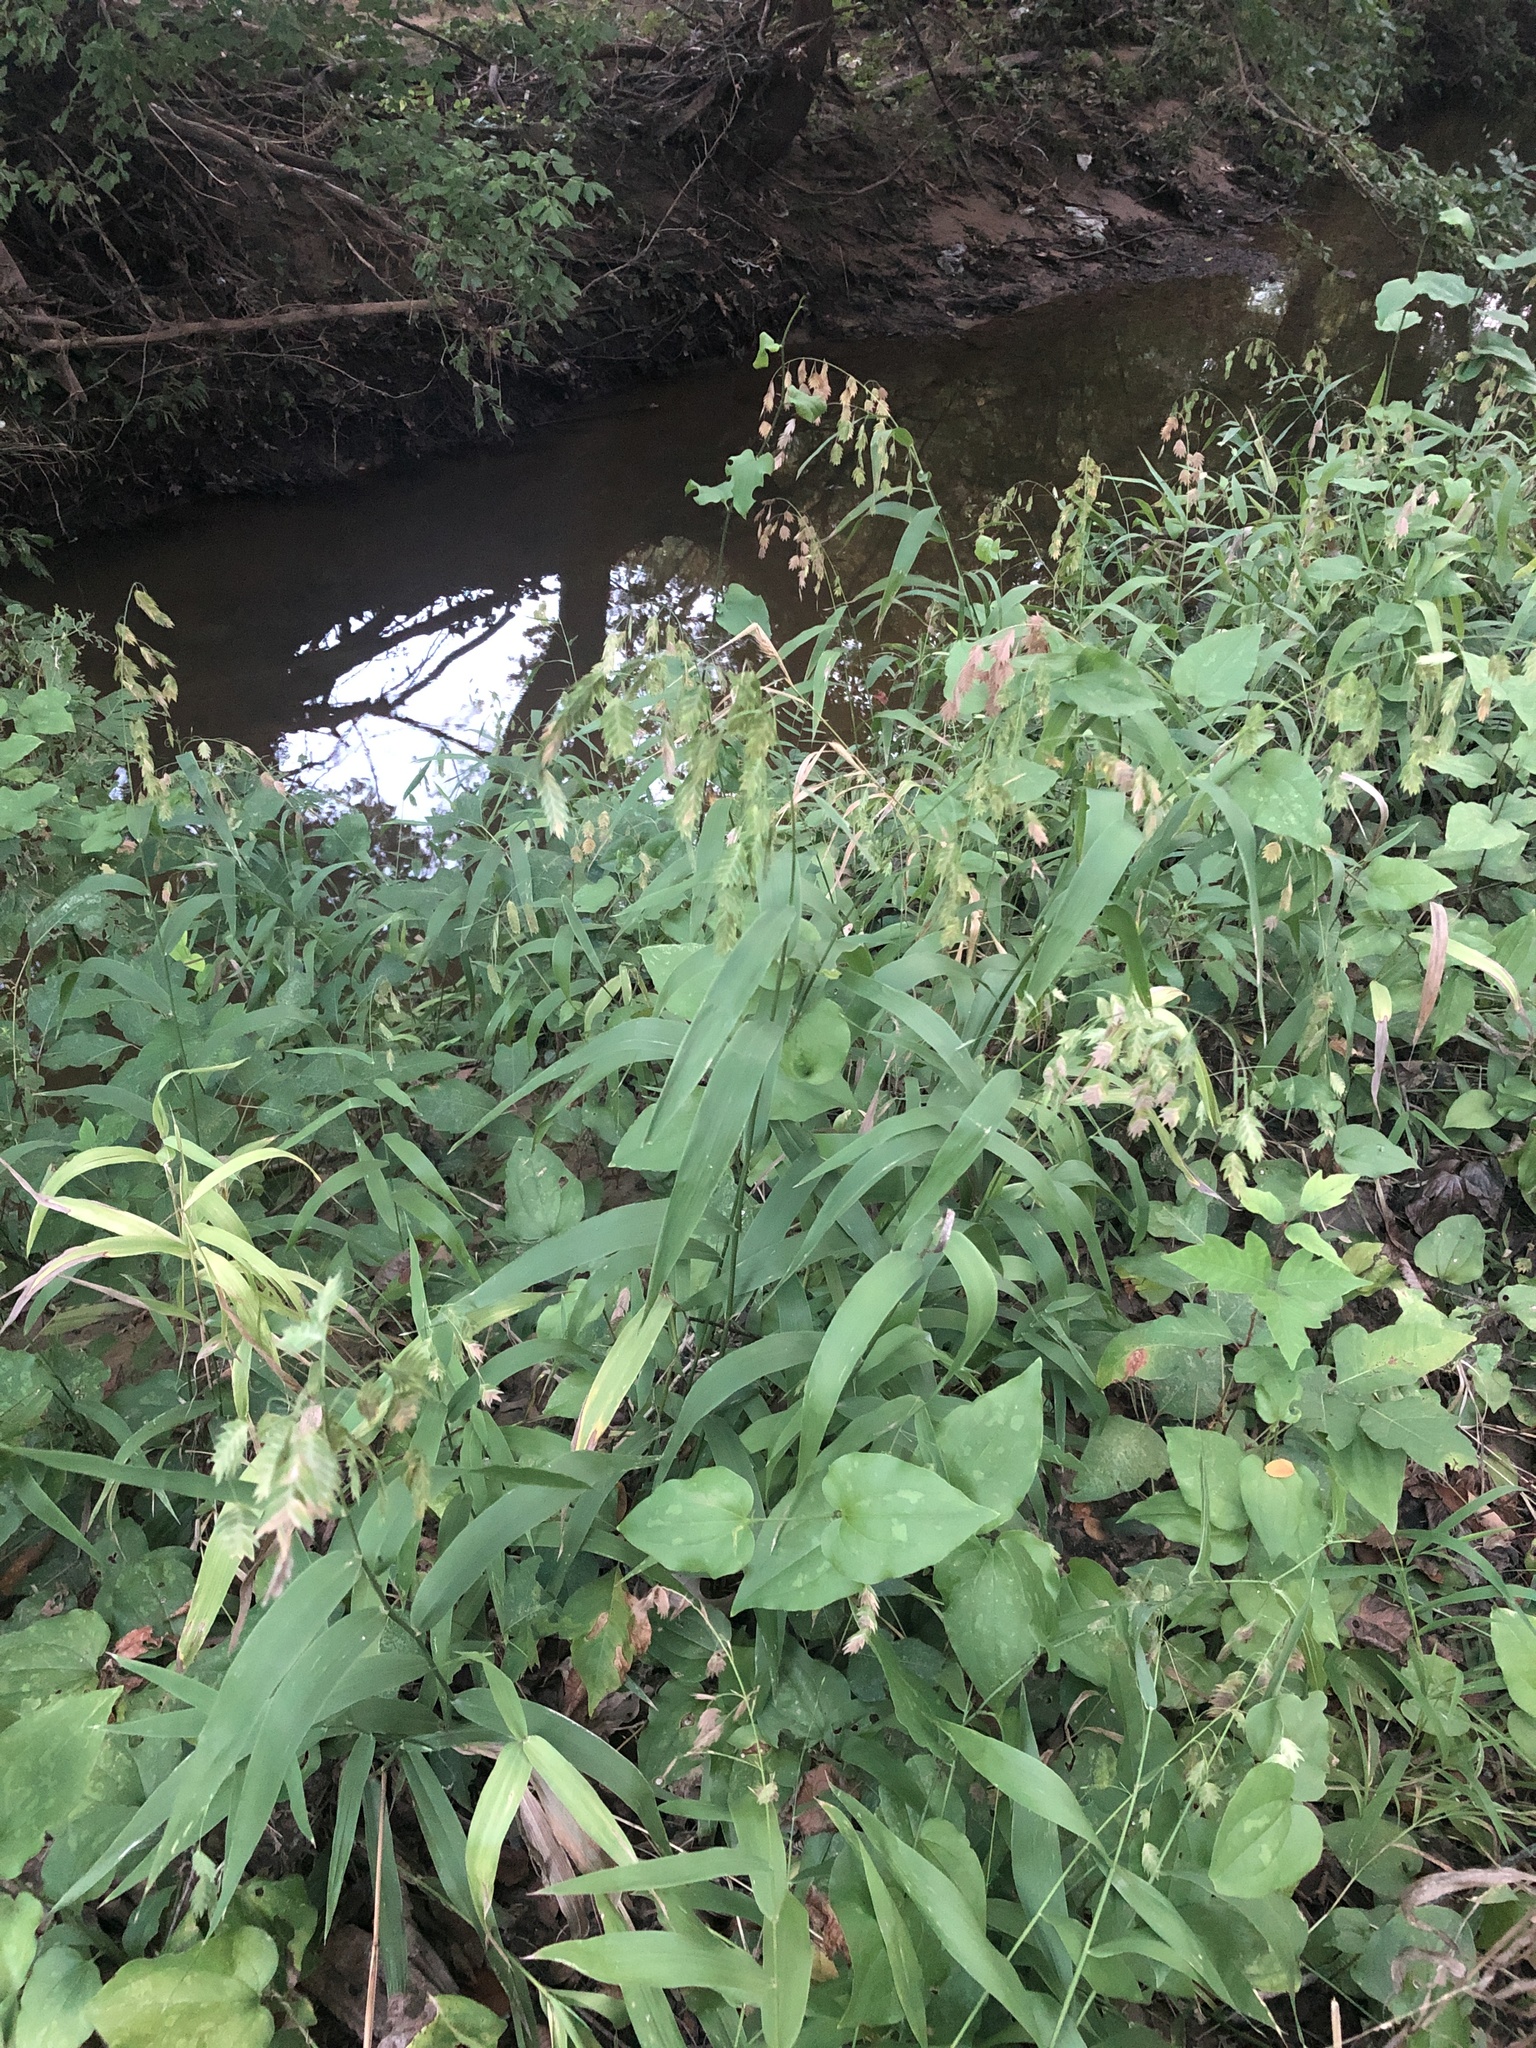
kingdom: Plantae
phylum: Tracheophyta
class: Liliopsida
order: Poales
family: Poaceae
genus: Chasmanthium
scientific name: Chasmanthium latifolium
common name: Broad-leaved chasmanthium
